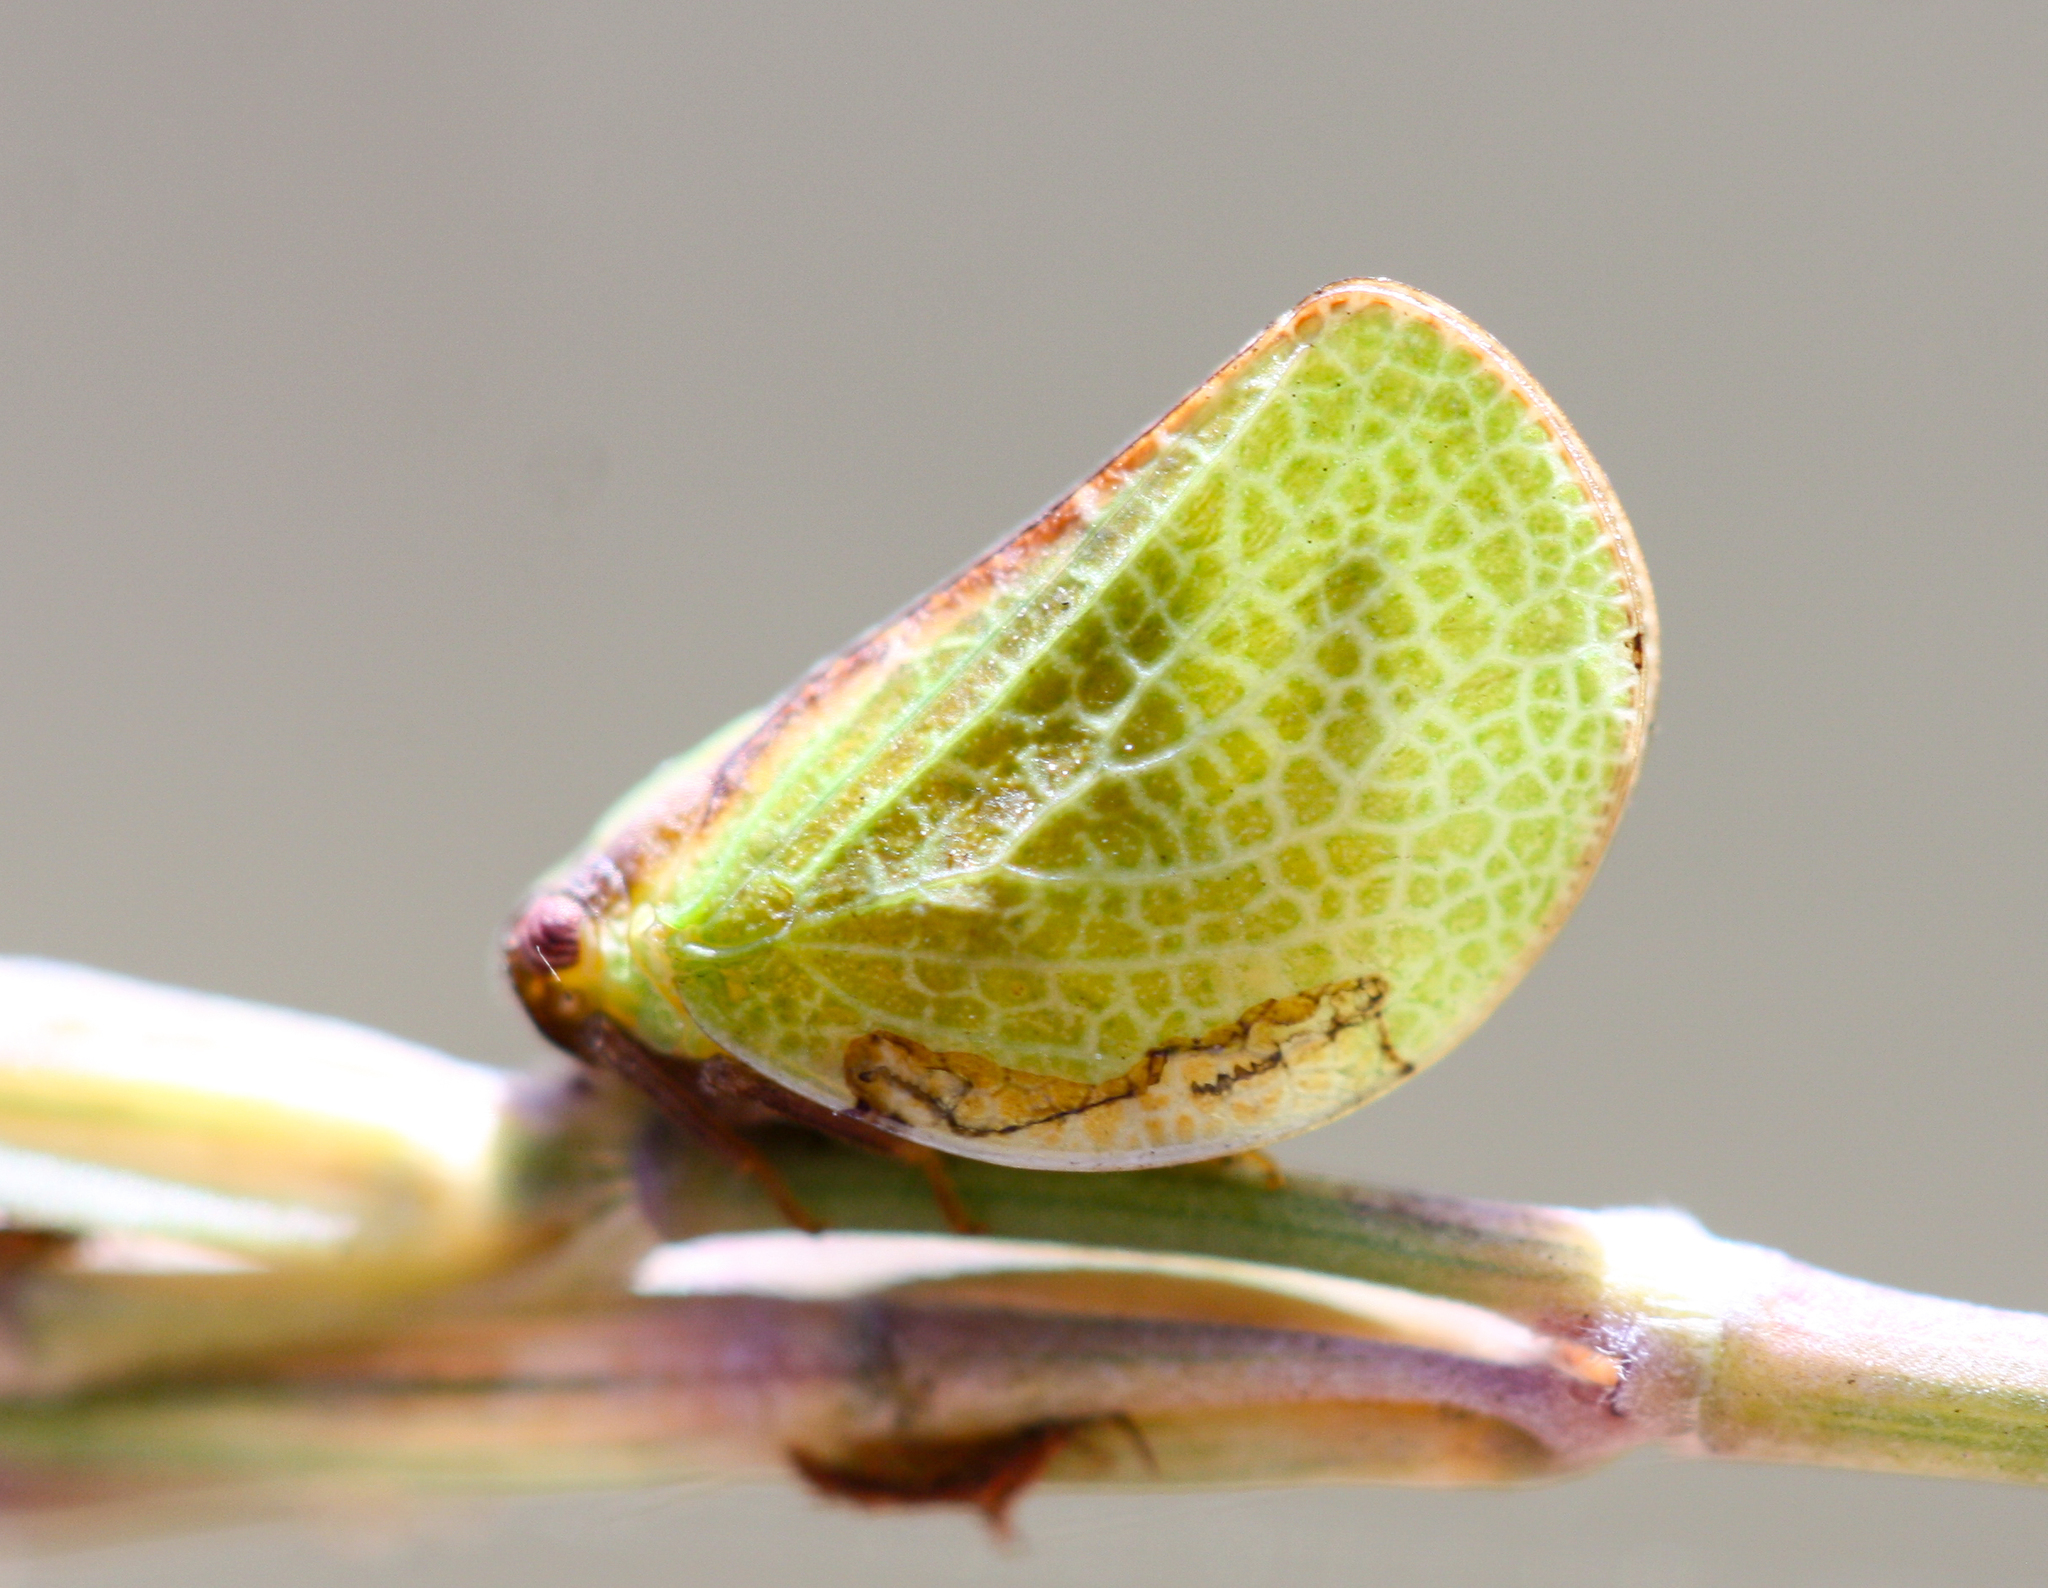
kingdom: Animalia
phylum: Arthropoda
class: Insecta
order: Hemiptera
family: Acanaloniidae
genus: Acanalonia
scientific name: Acanalonia bivittata
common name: Two-striped planthopper
